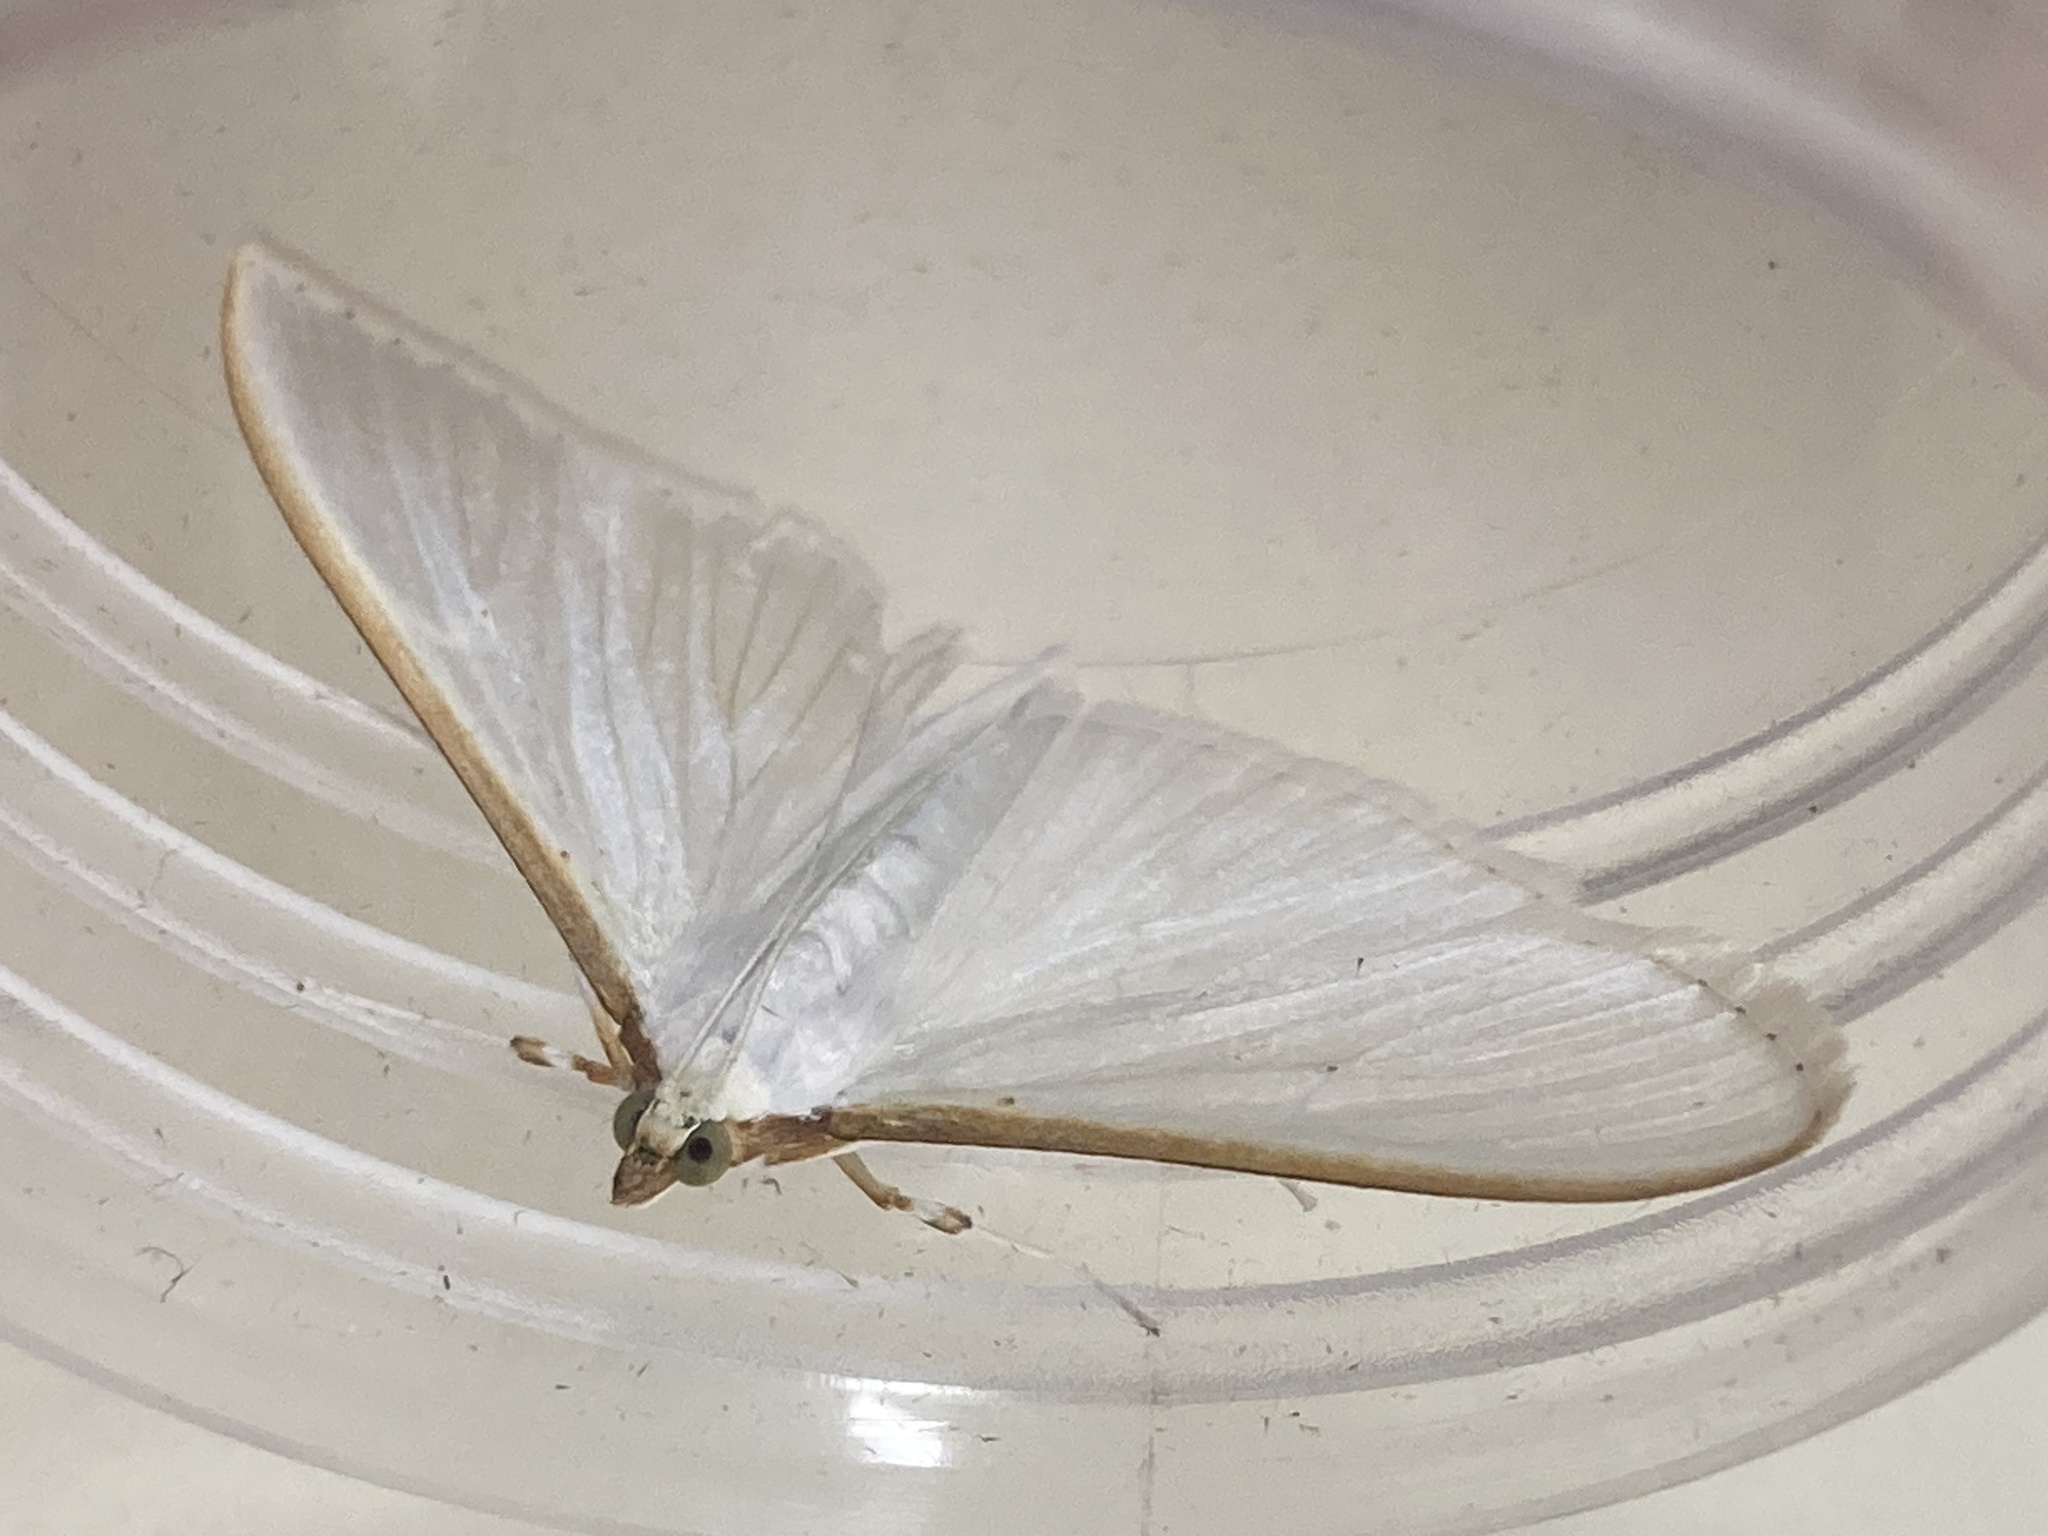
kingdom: Animalia
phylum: Arthropoda
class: Insecta
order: Lepidoptera
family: Crambidae
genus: Palpita
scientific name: Palpita vitrealis
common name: Olive-tree pearl
